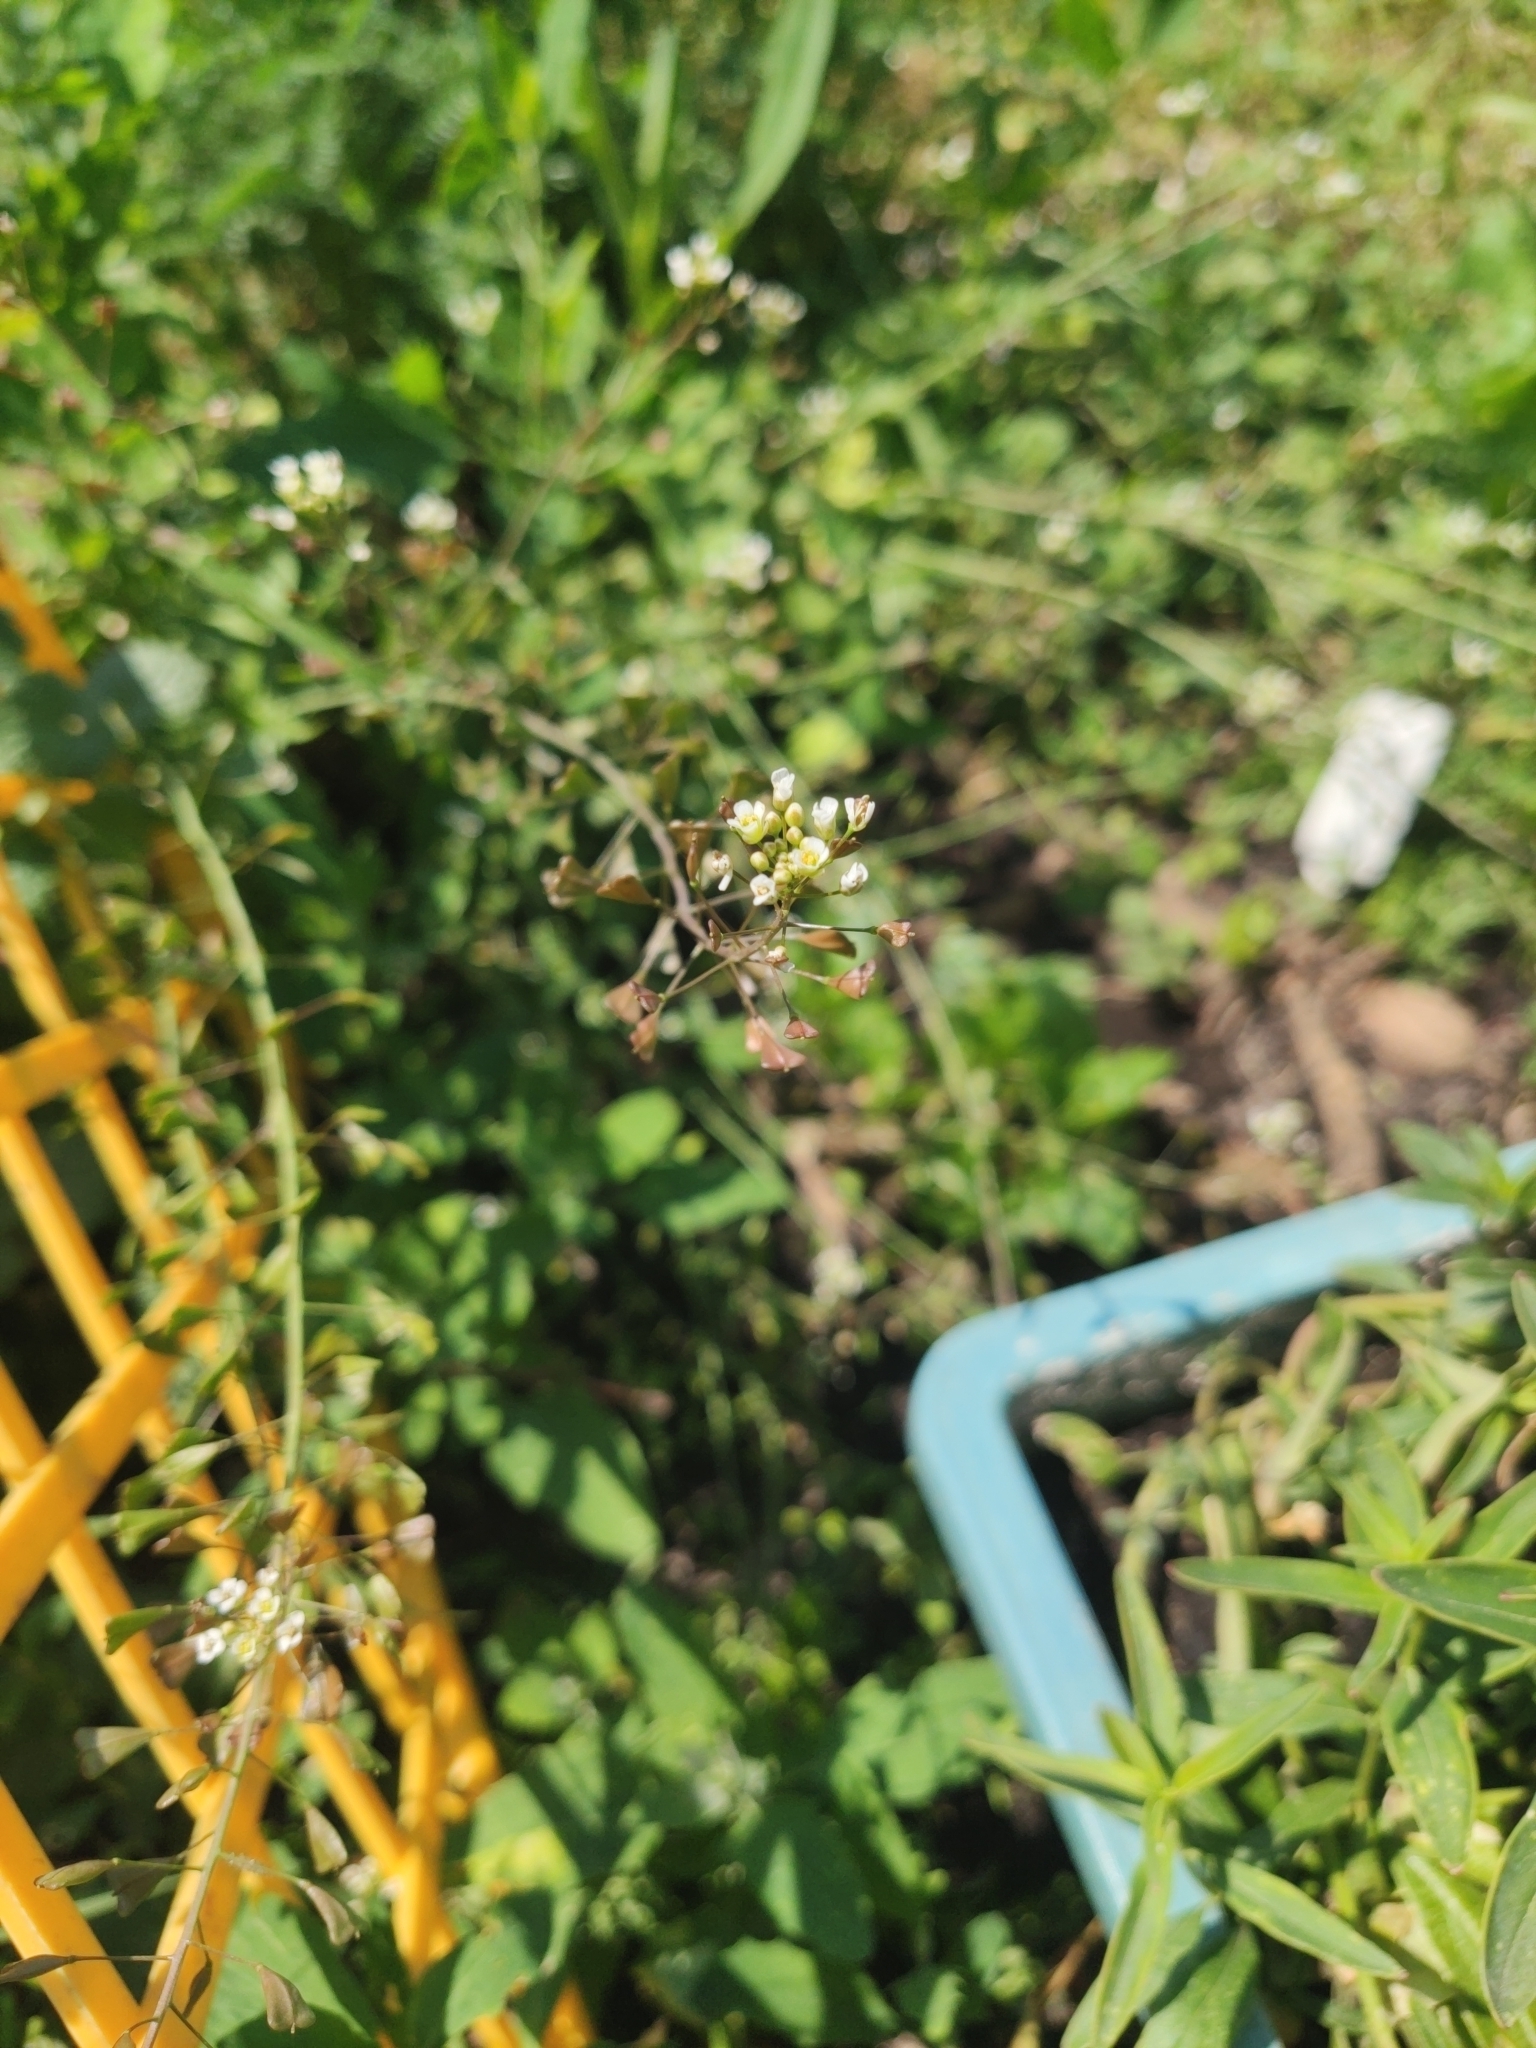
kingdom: Plantae
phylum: Tracheophyta
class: Magnoliopsida
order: Brassicales
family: Brassicaceae
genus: Capsella
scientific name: Capsella bursa-pastoris
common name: Shepherd's purse
